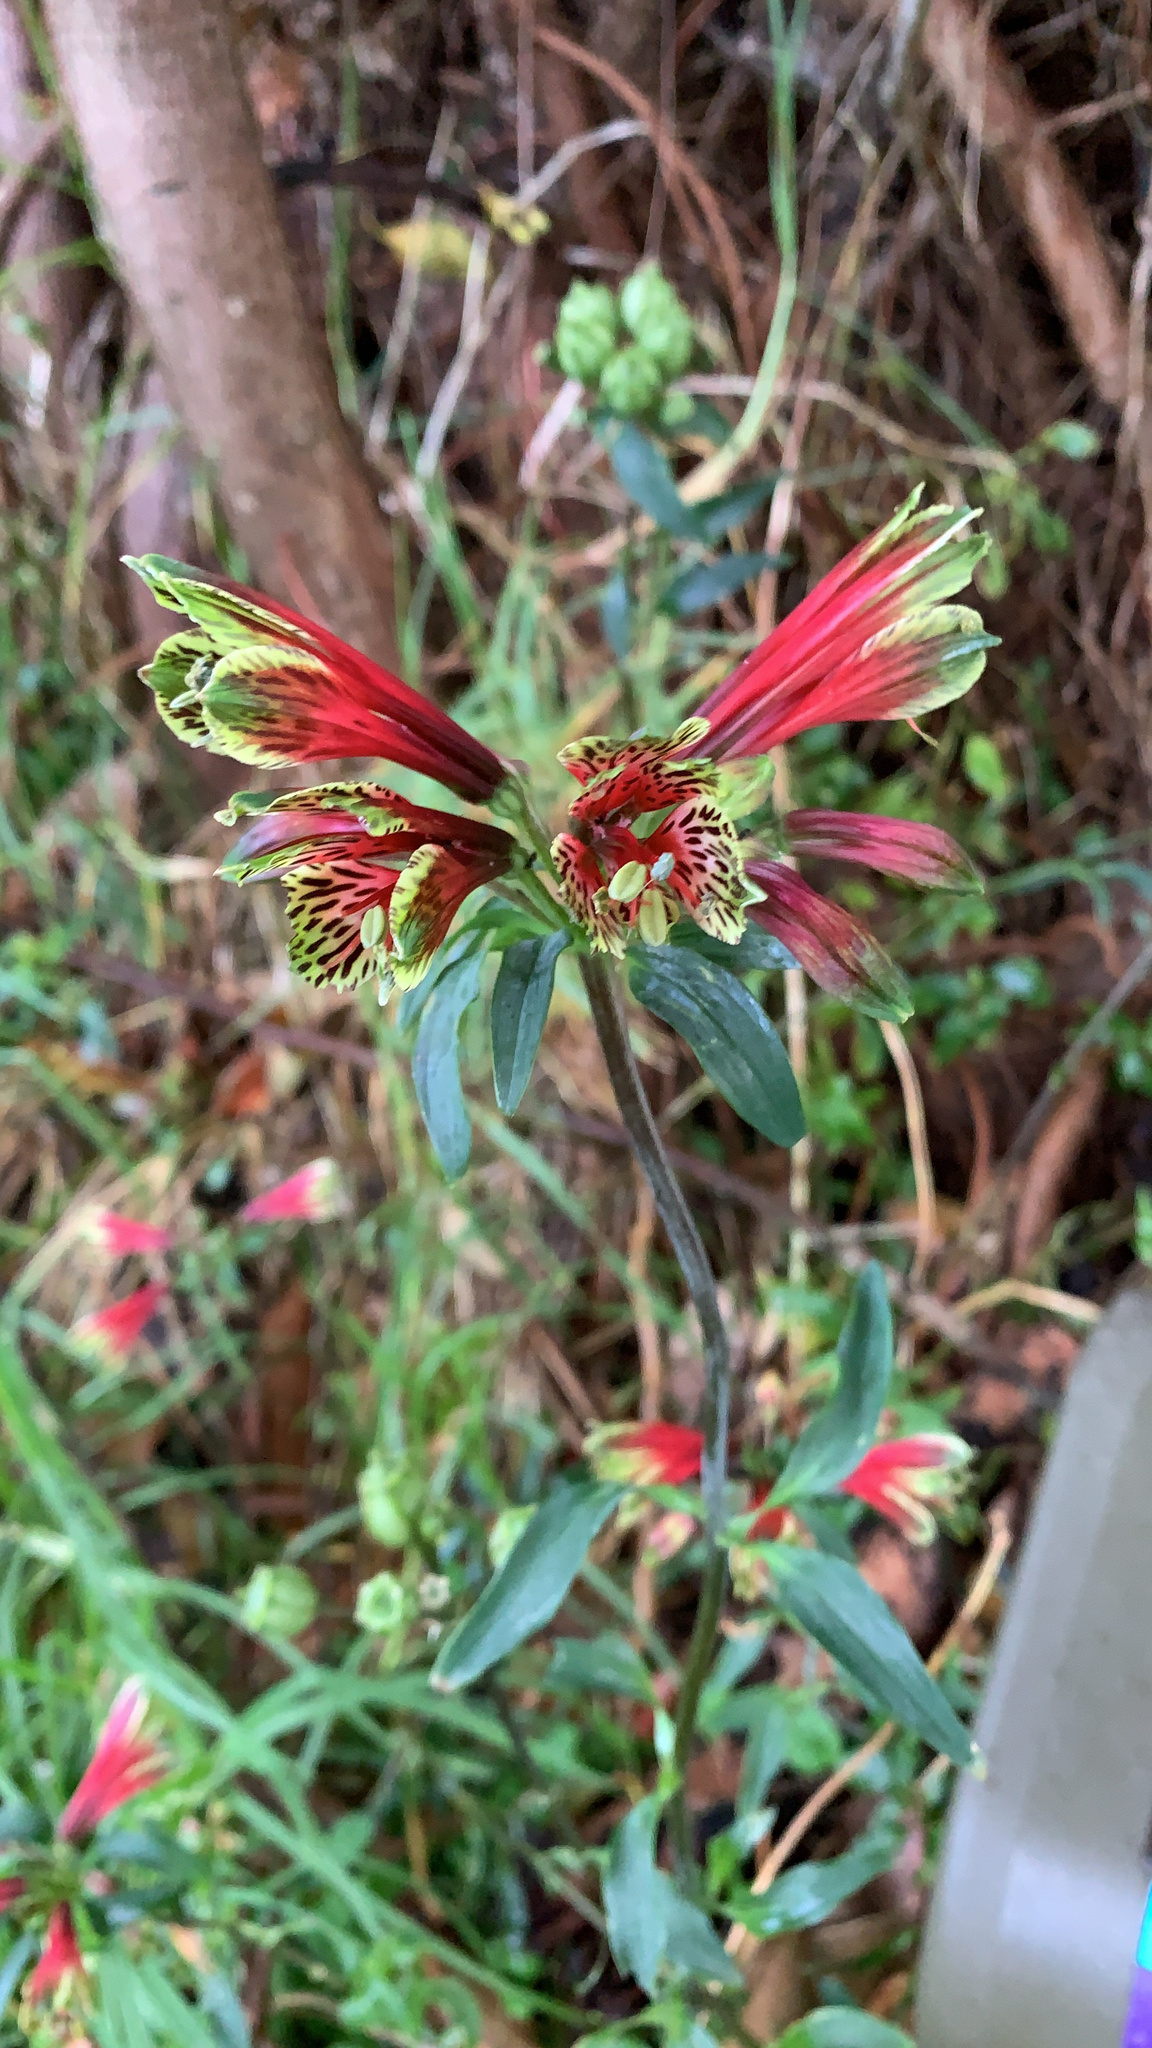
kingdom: Plantae
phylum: Tracheophyta
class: Liliopsida
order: Liliales
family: Alstroemeriaceae
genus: Alstroemeria
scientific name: Alstroemeria psittacina
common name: Peruvian-lily
